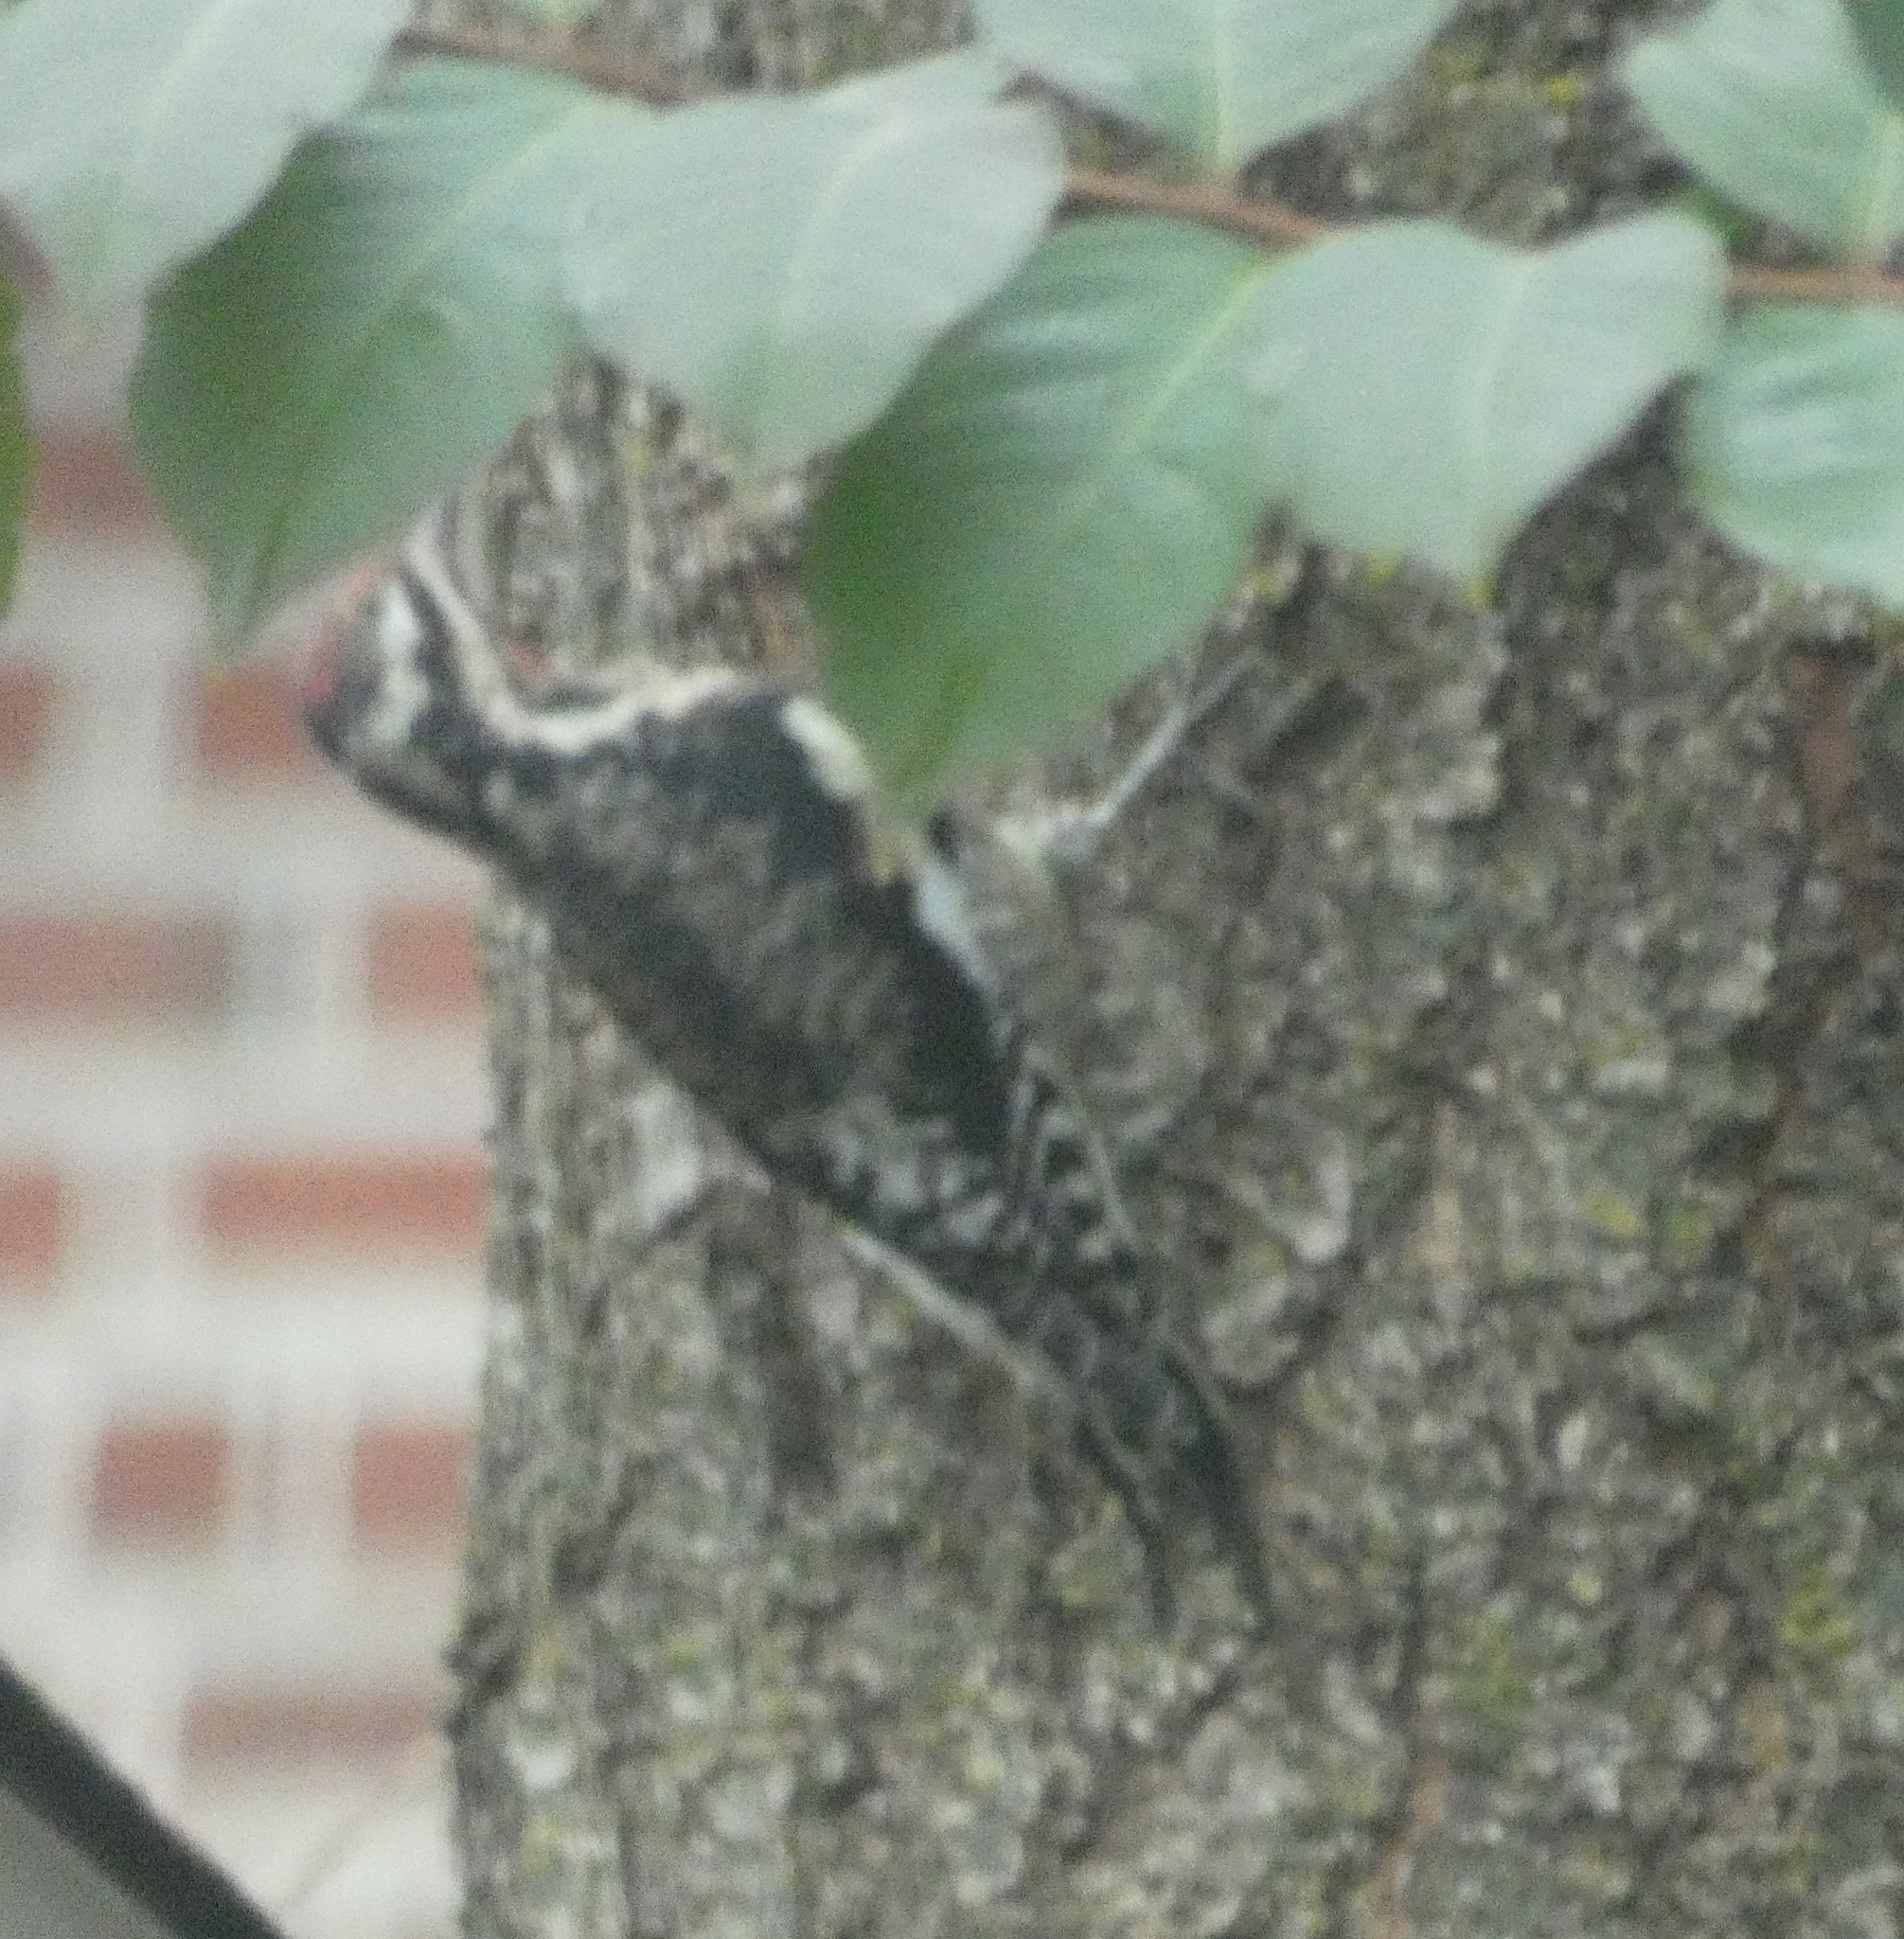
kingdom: Animalia
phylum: Chordata
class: Aves
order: Piciformes
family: Picidae
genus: Sphyrapicus
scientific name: Sphyrapicus varius
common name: Yellow-bellied sapsucker
